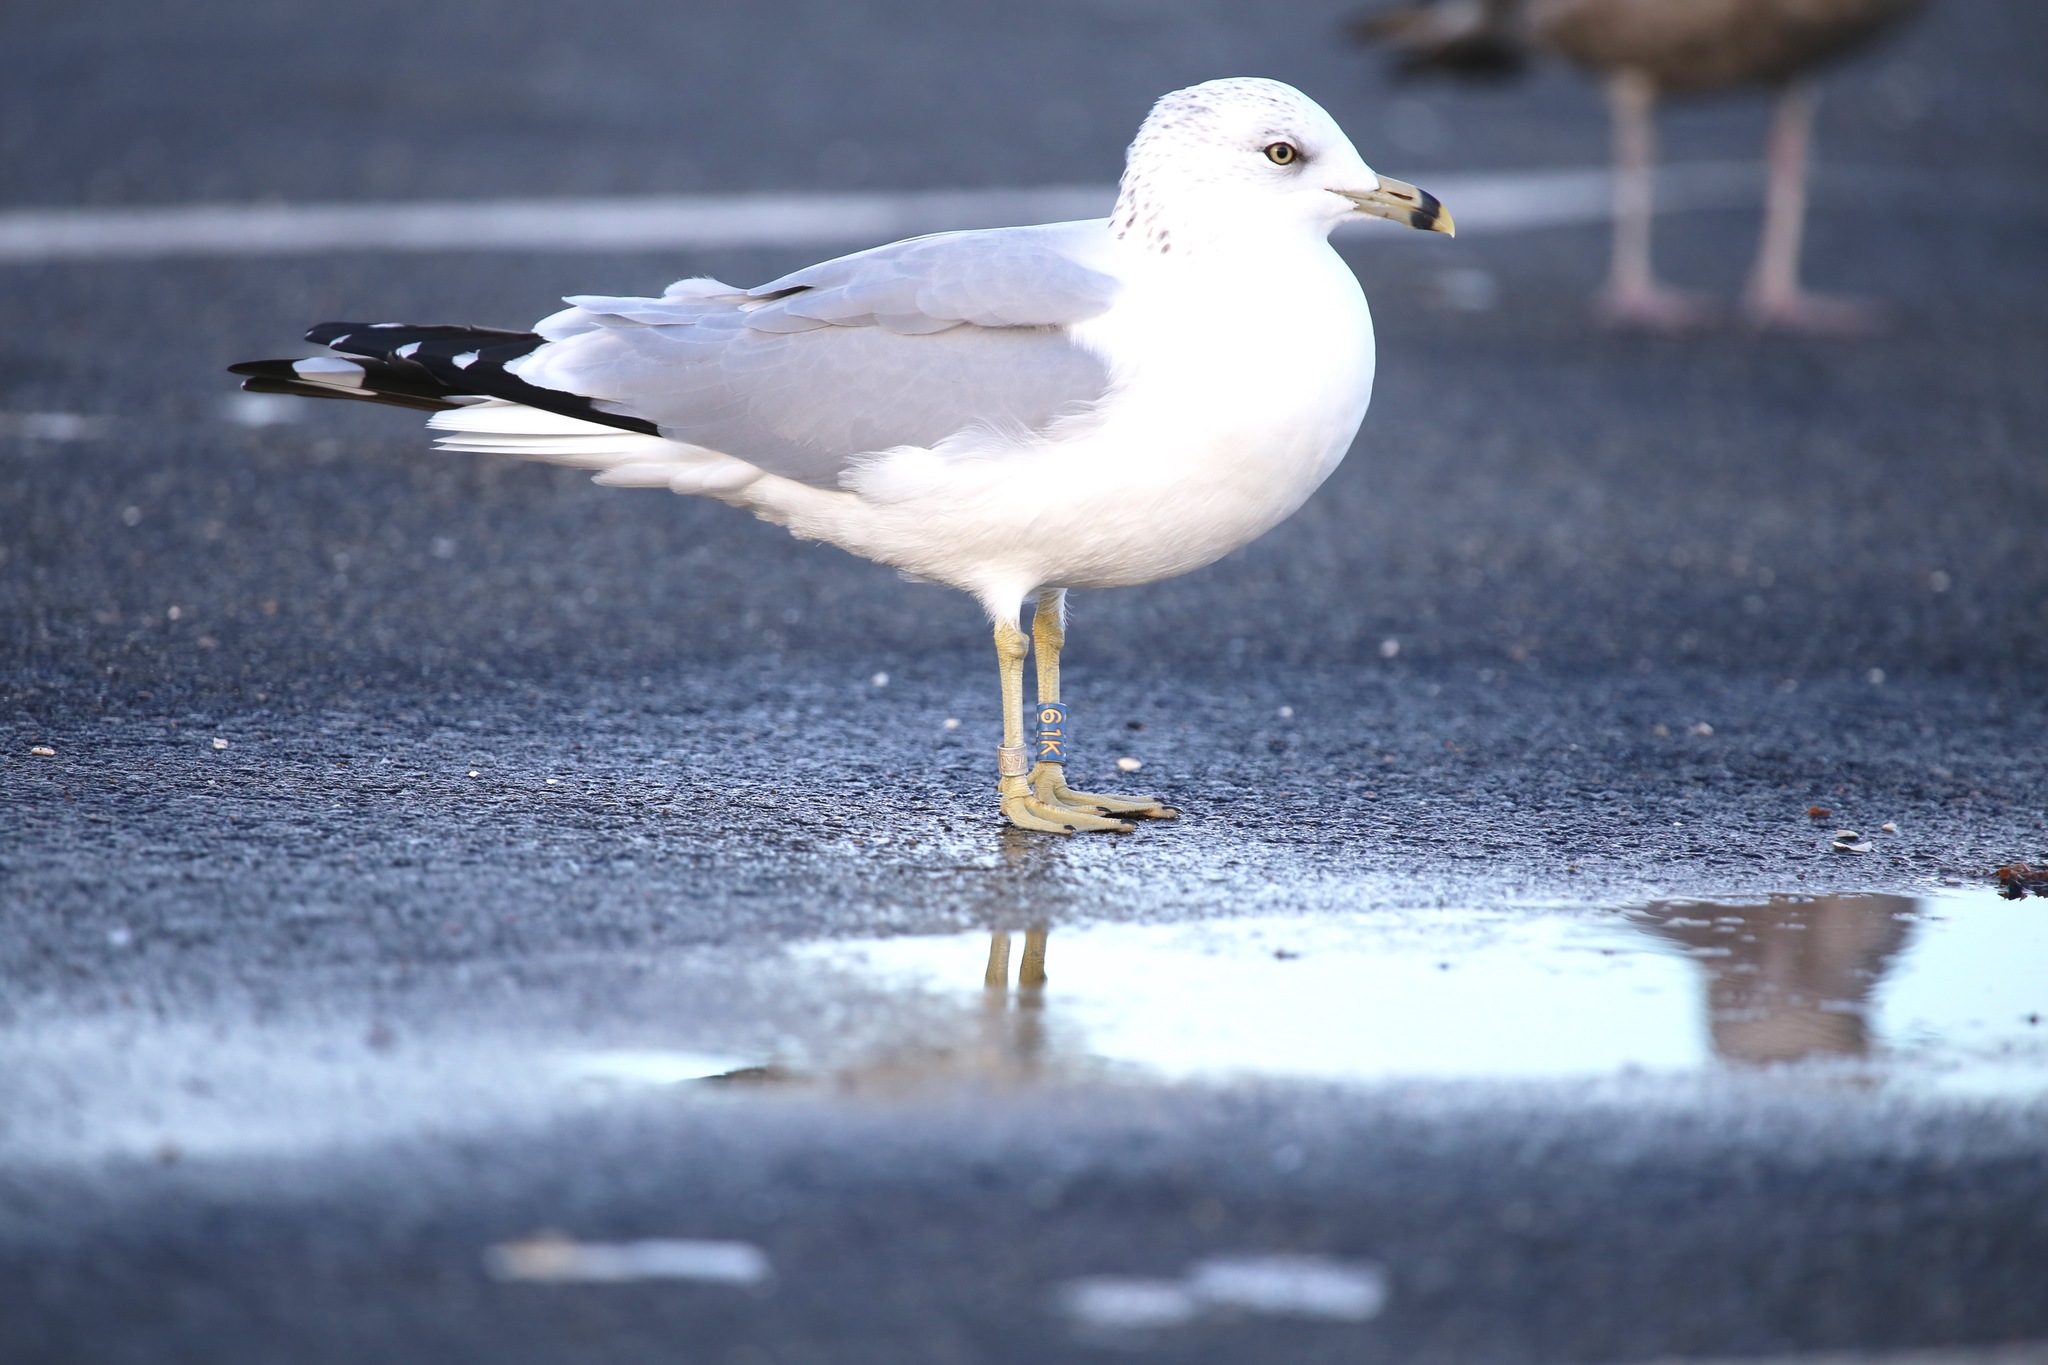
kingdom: Animalia
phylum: Chordata
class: Aves
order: Charadriiformes
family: Laridae
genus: Larus
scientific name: Larus delawarensis
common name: Ring-billed gull
